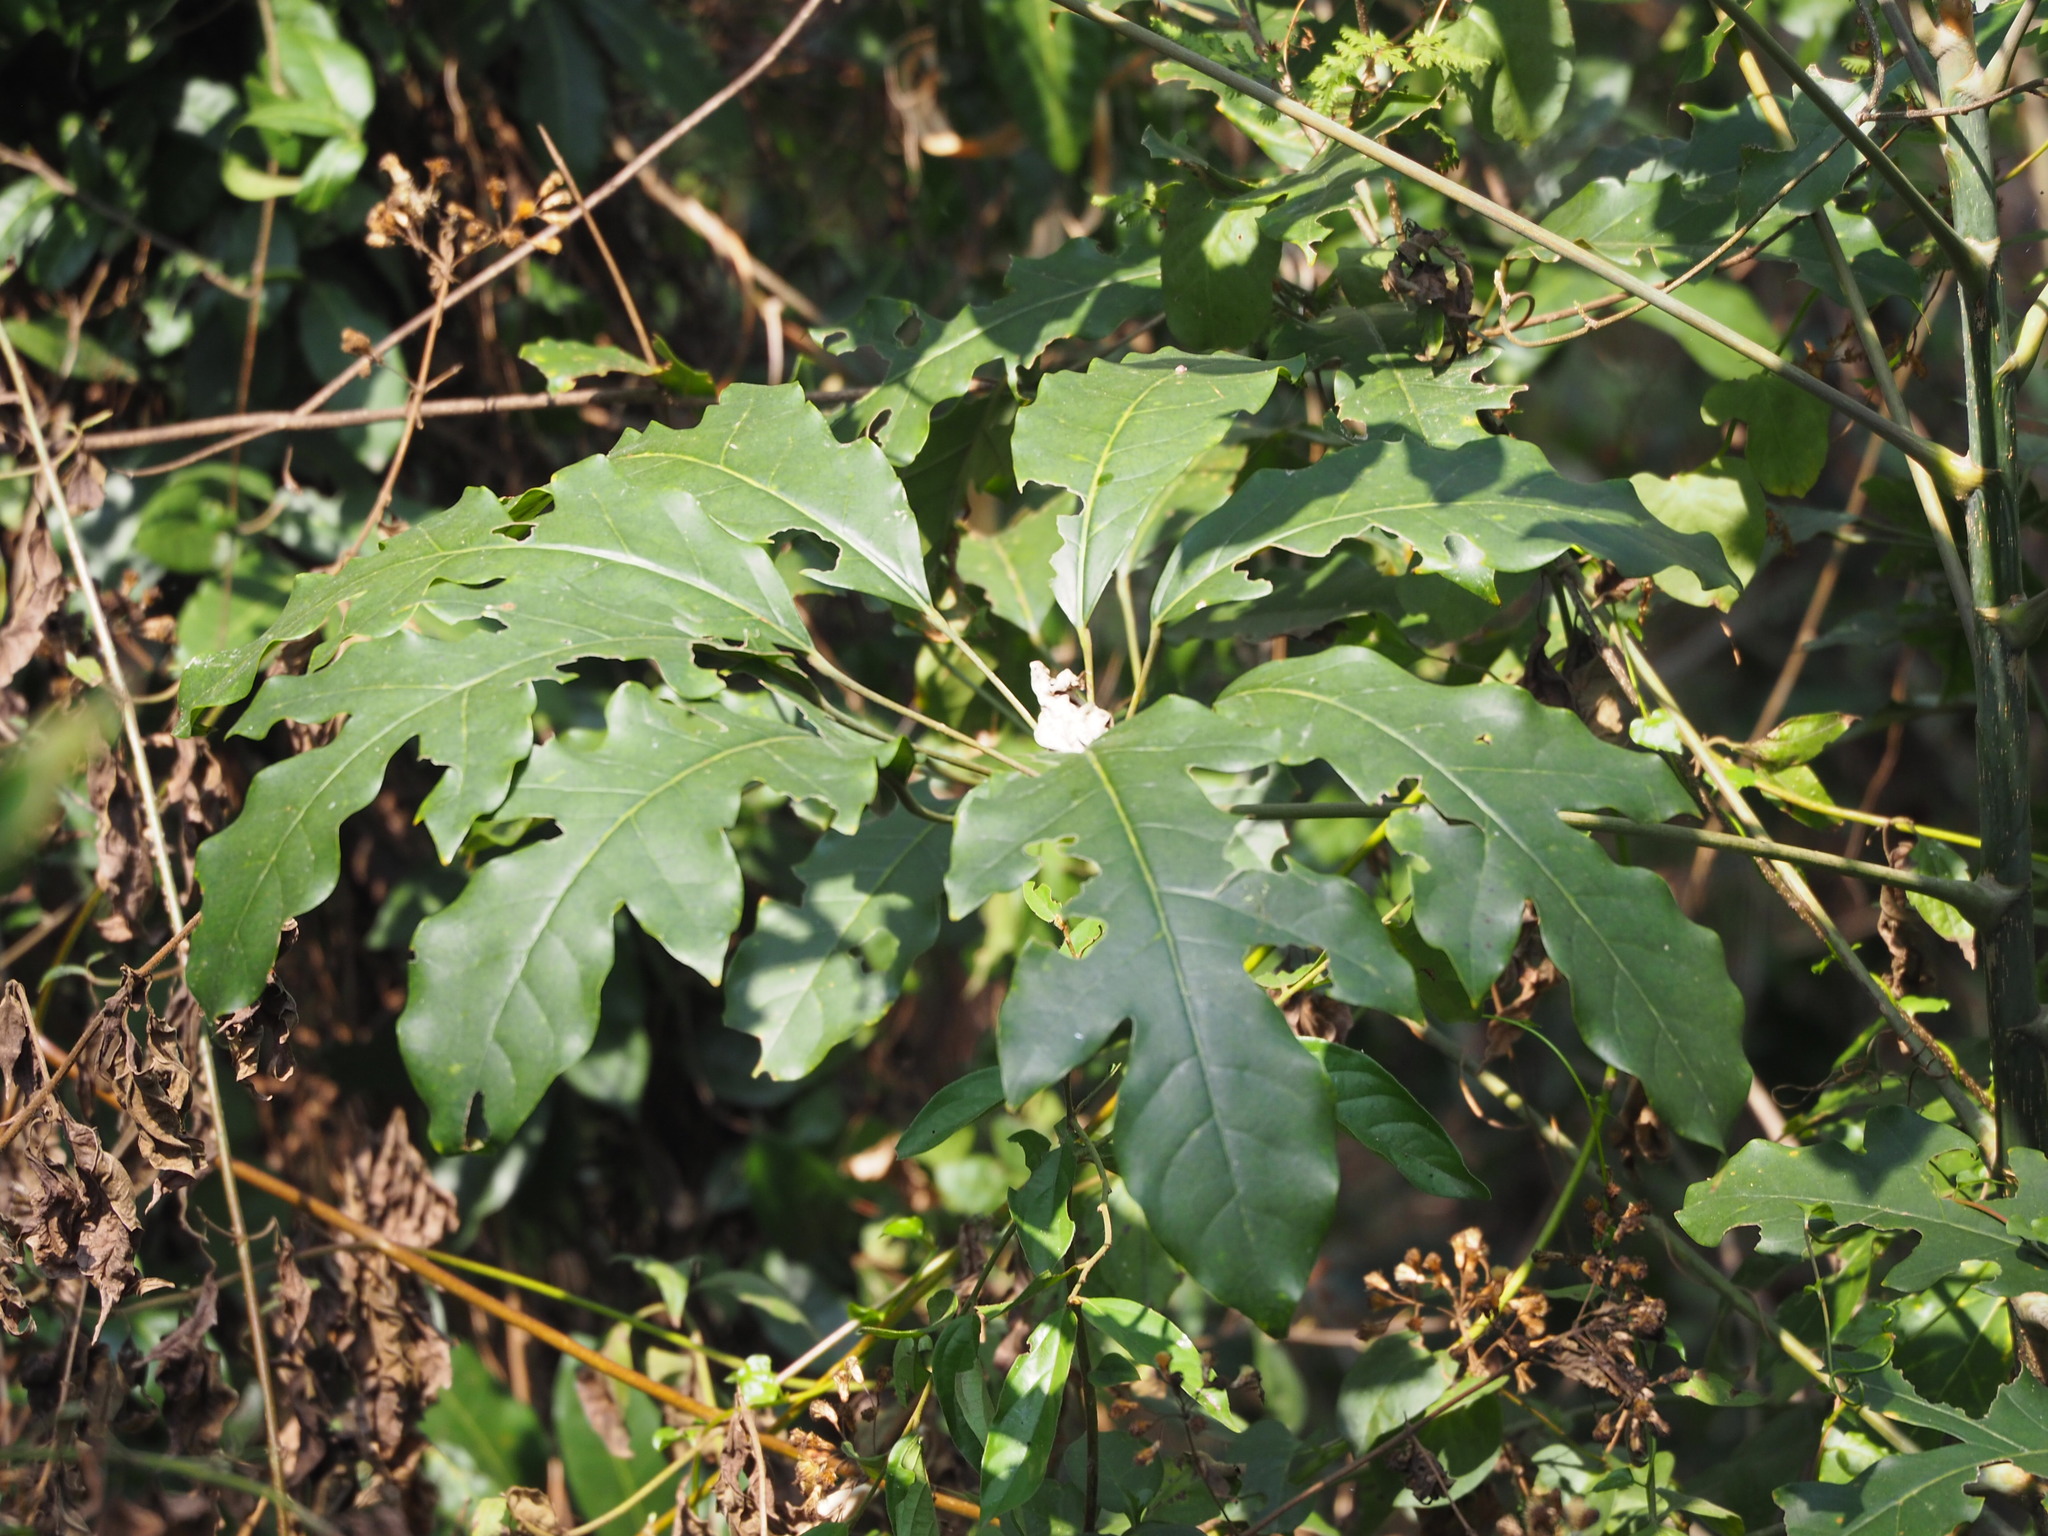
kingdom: Plantae
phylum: Tracheophyta
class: Magnoliopsida
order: Apiales
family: Araliaceae
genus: Heptapleurum
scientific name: Heptapleurum heptaphyllum
